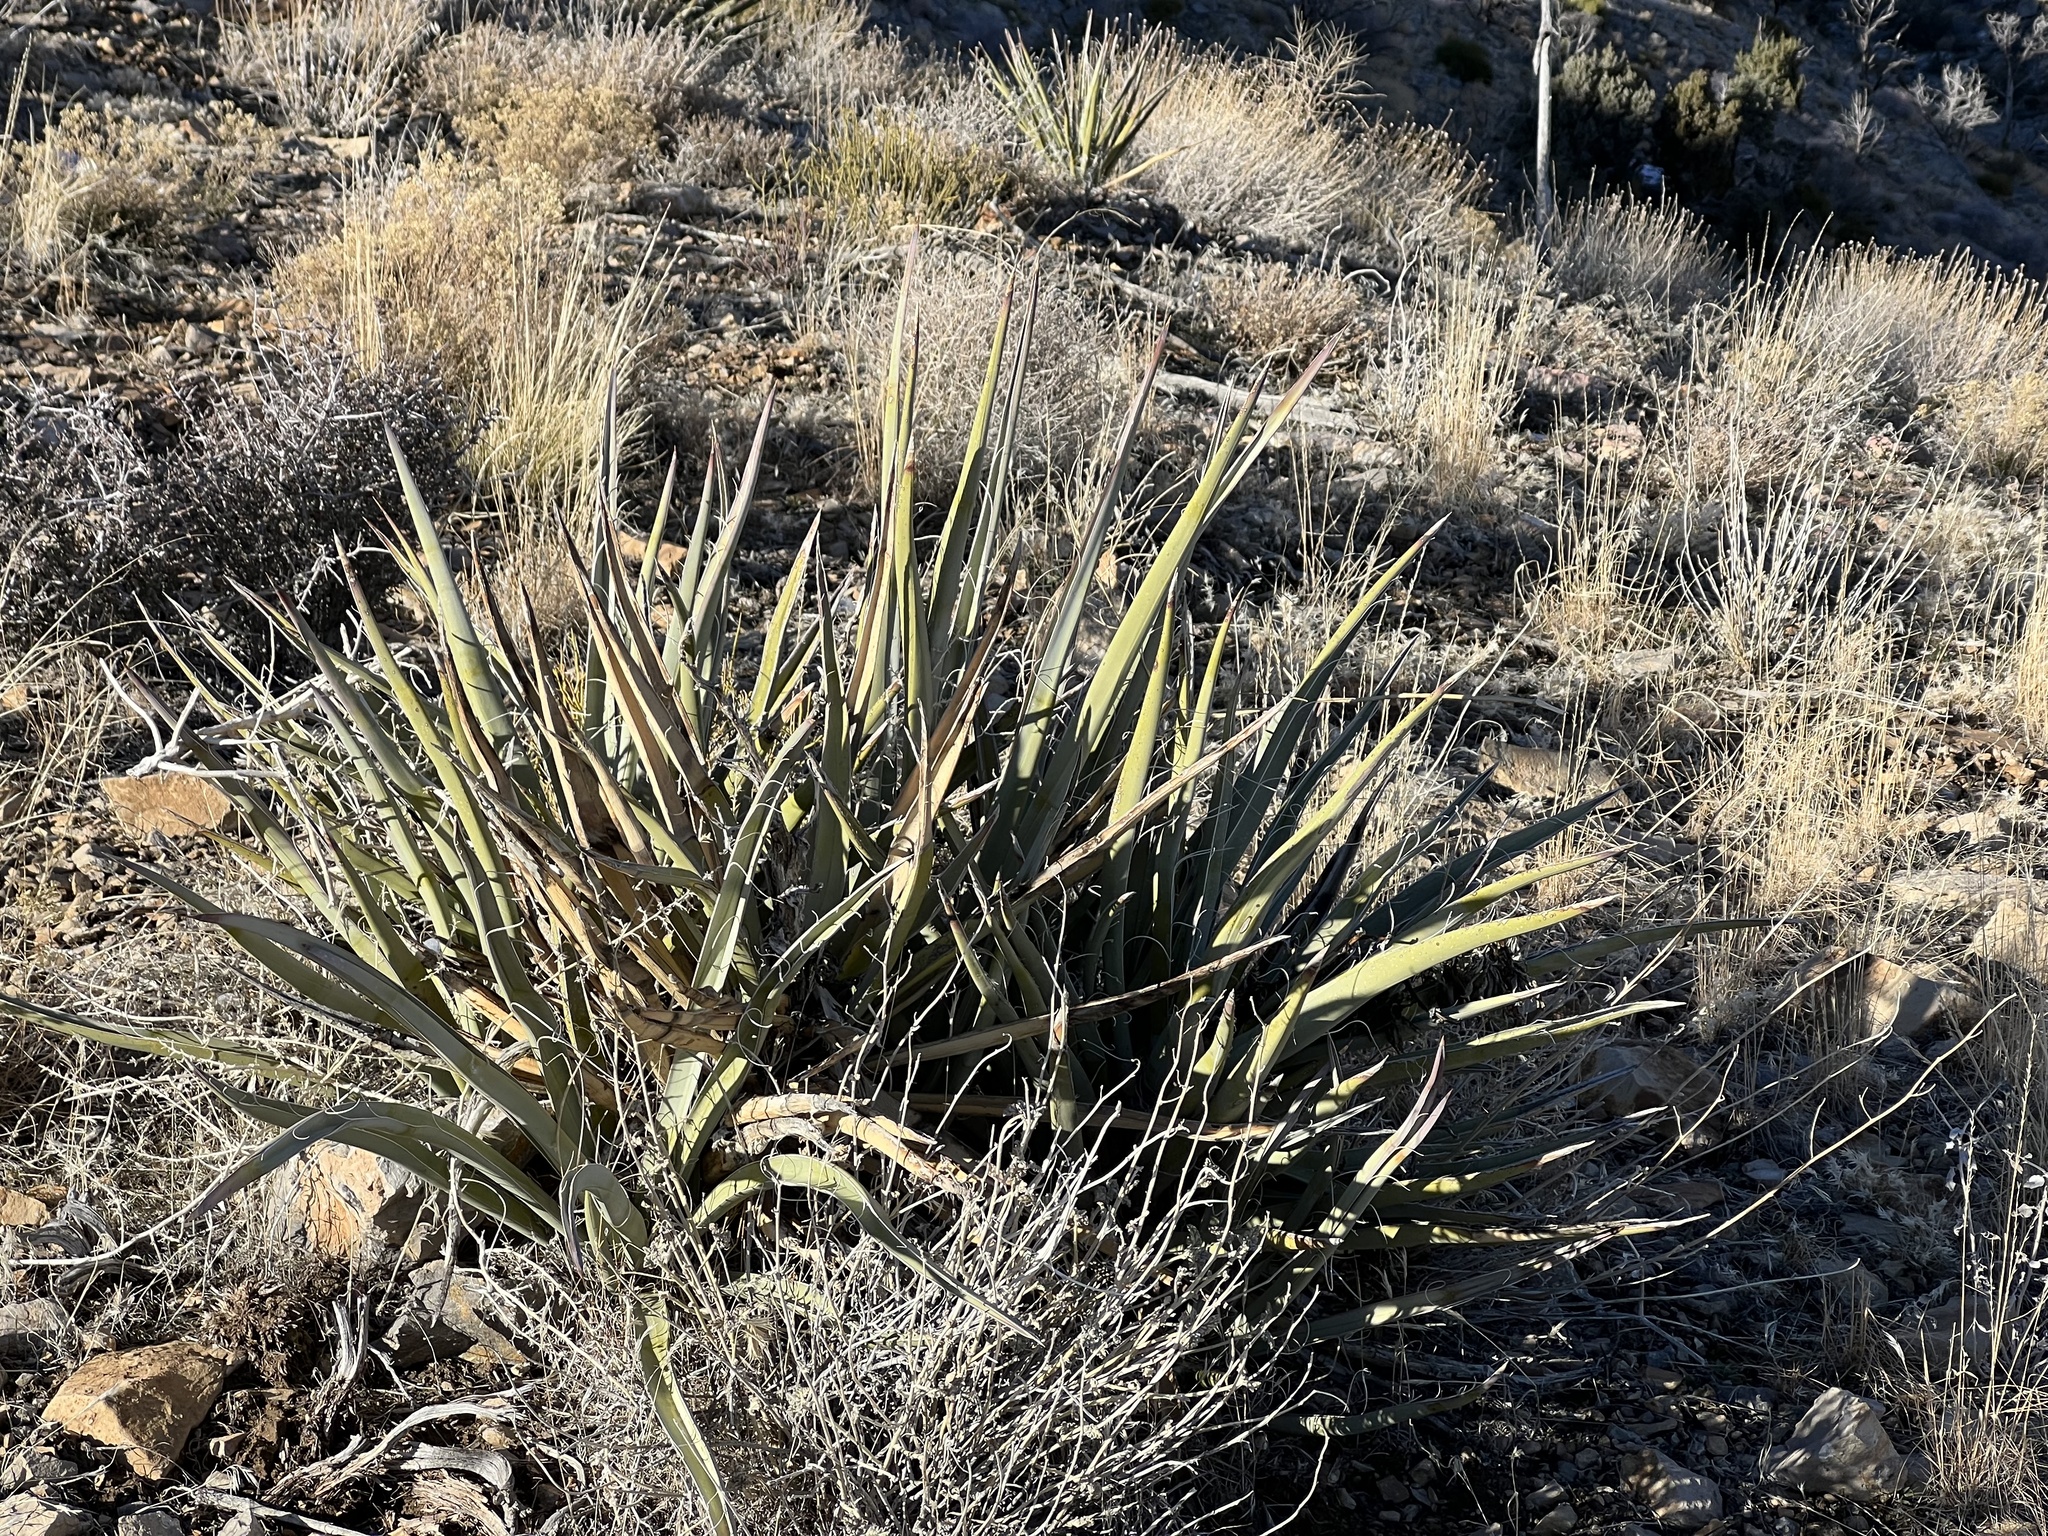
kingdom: Plantae
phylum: Tracheophyta
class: Liliopsida
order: Asparagales
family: Asparagaceae
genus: Yucca
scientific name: Yucca baccata
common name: Banana yucca
